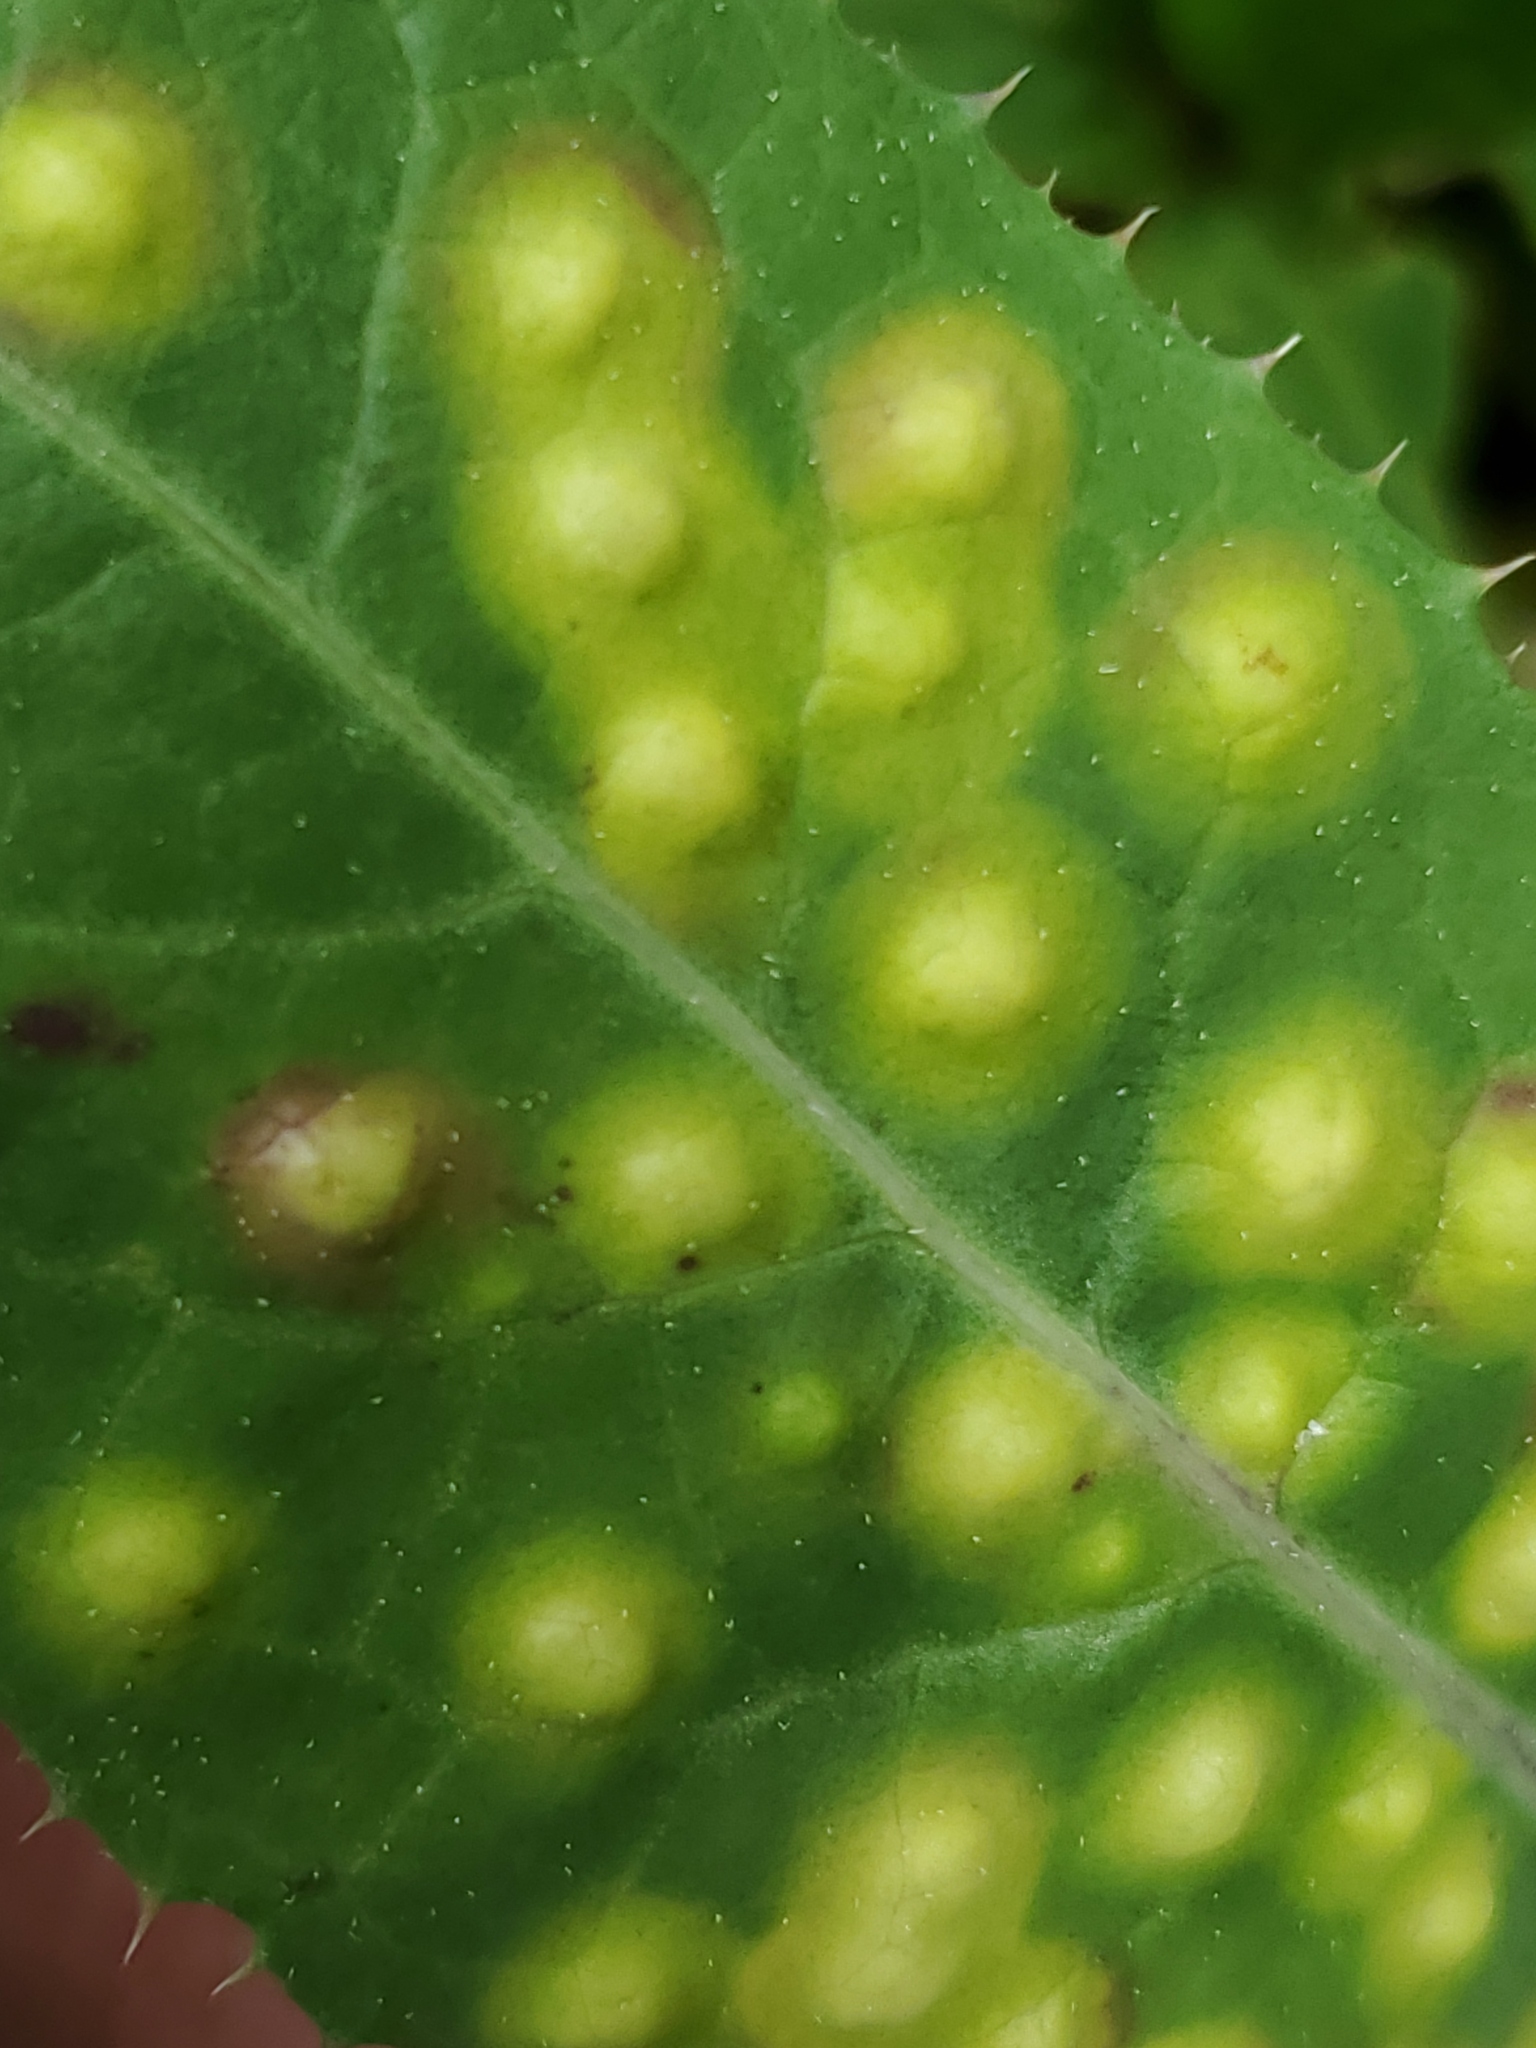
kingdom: Animalia
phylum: Arthropoda
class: Insecta
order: Diptera
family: Cecidomyiidae
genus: Cystiphora
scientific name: Cystiphora sonchi
